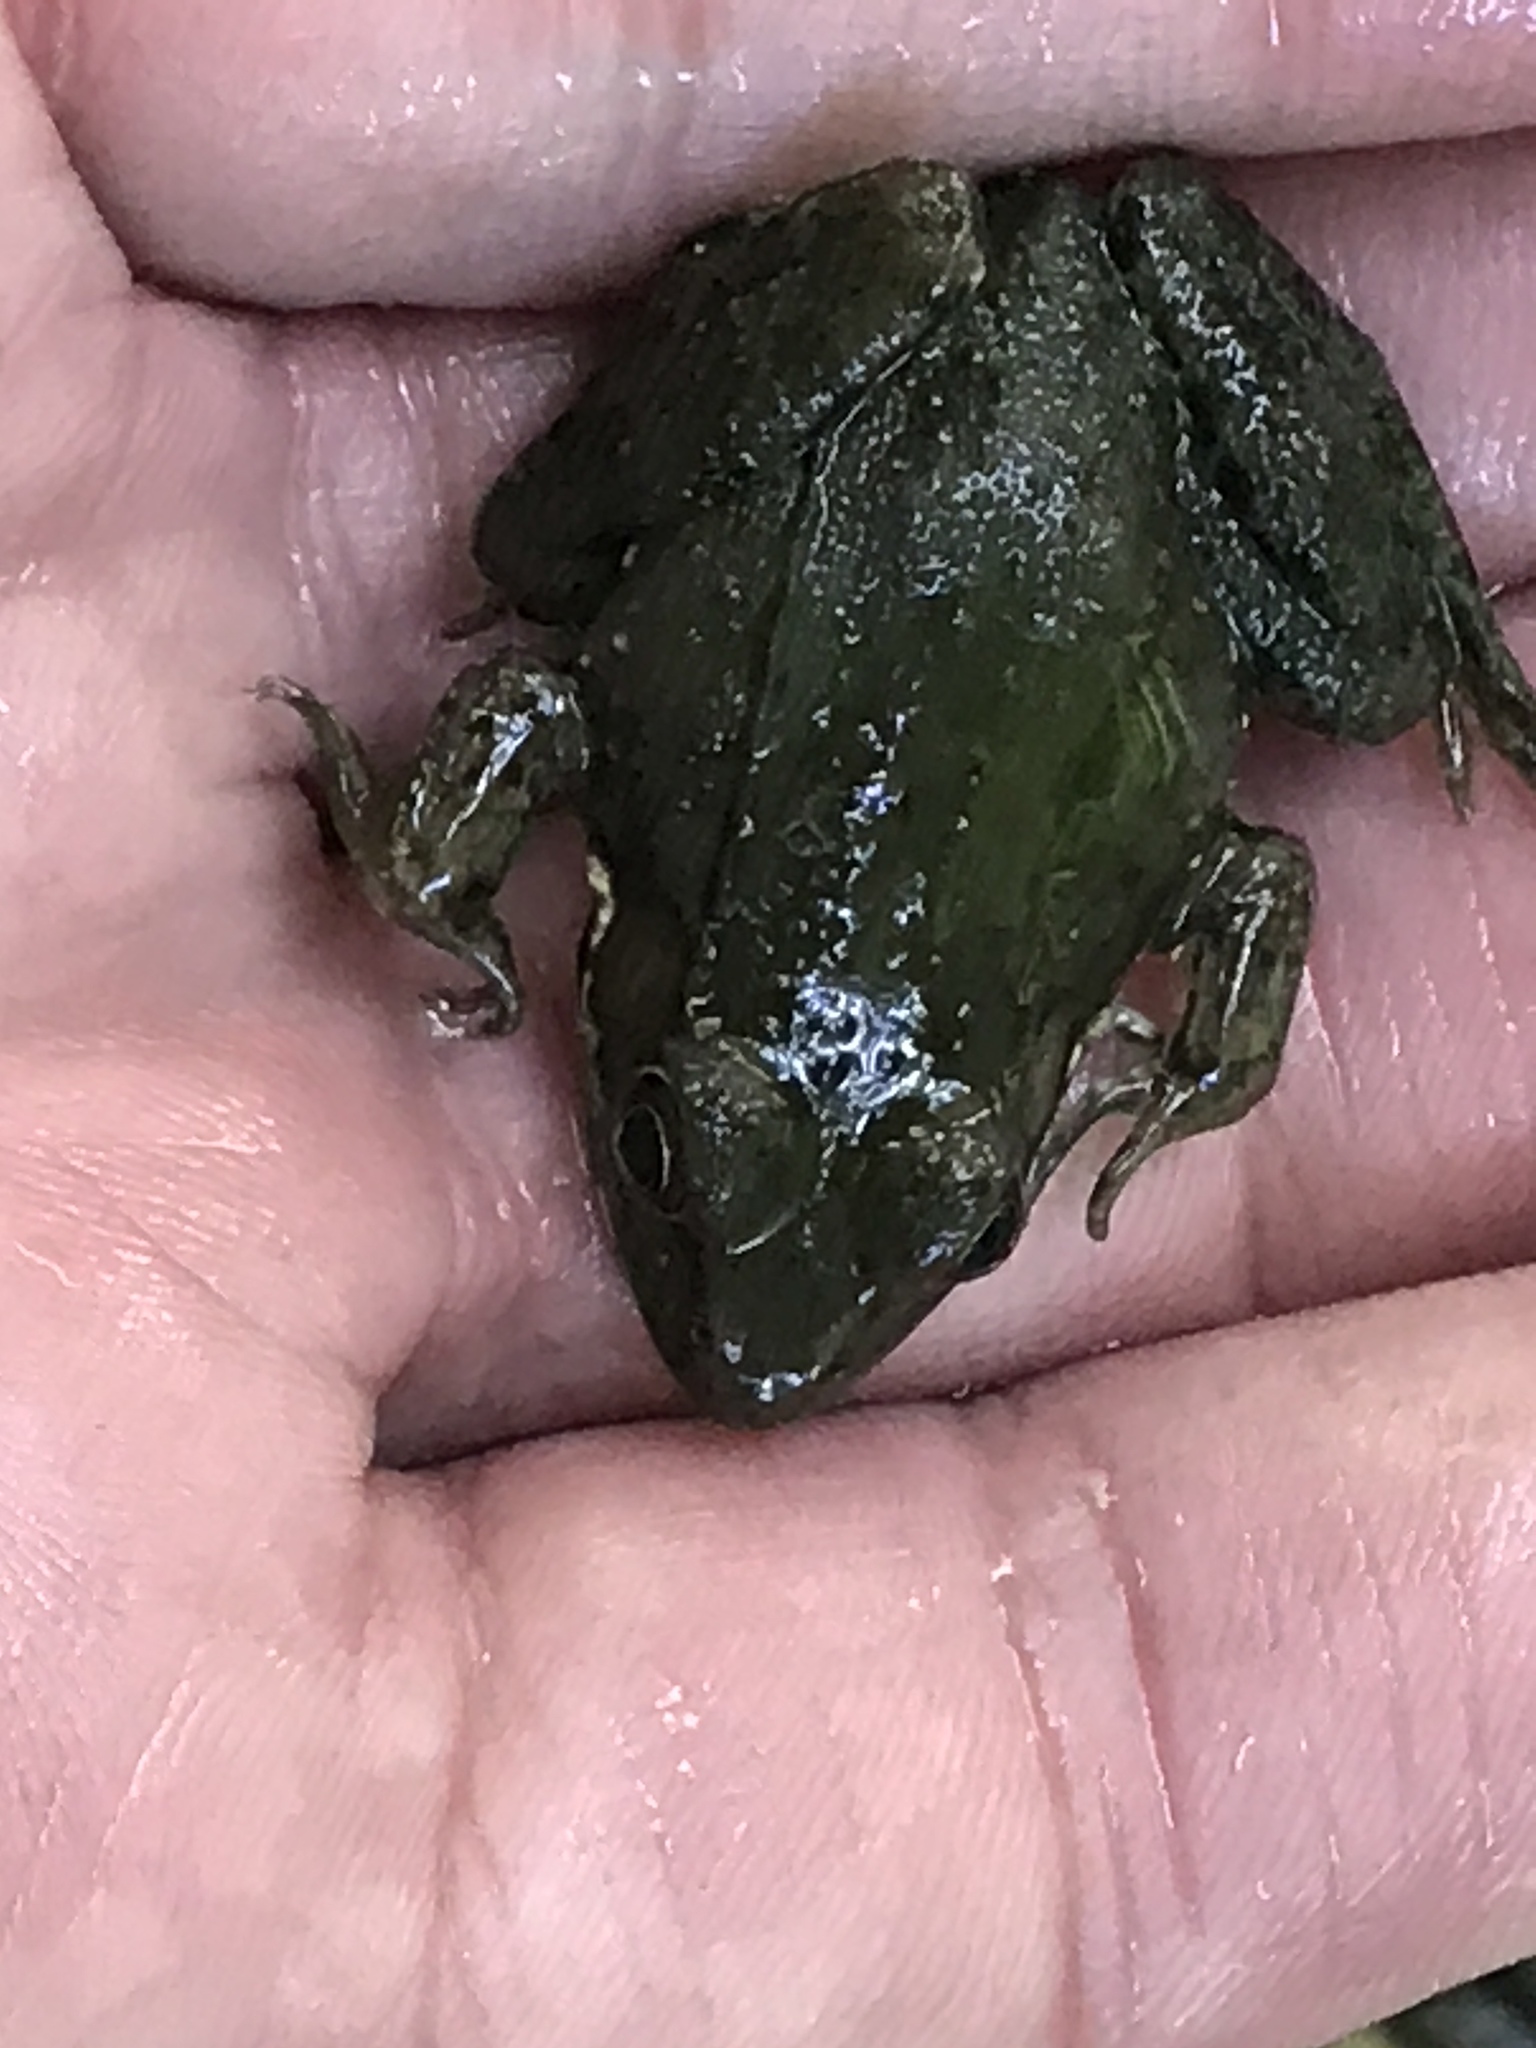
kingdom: Animalia
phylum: Chordata
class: Amphibia
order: Anura
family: Ranidae
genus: Lithobates
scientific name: Lithobates clamitans
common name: Green frog
